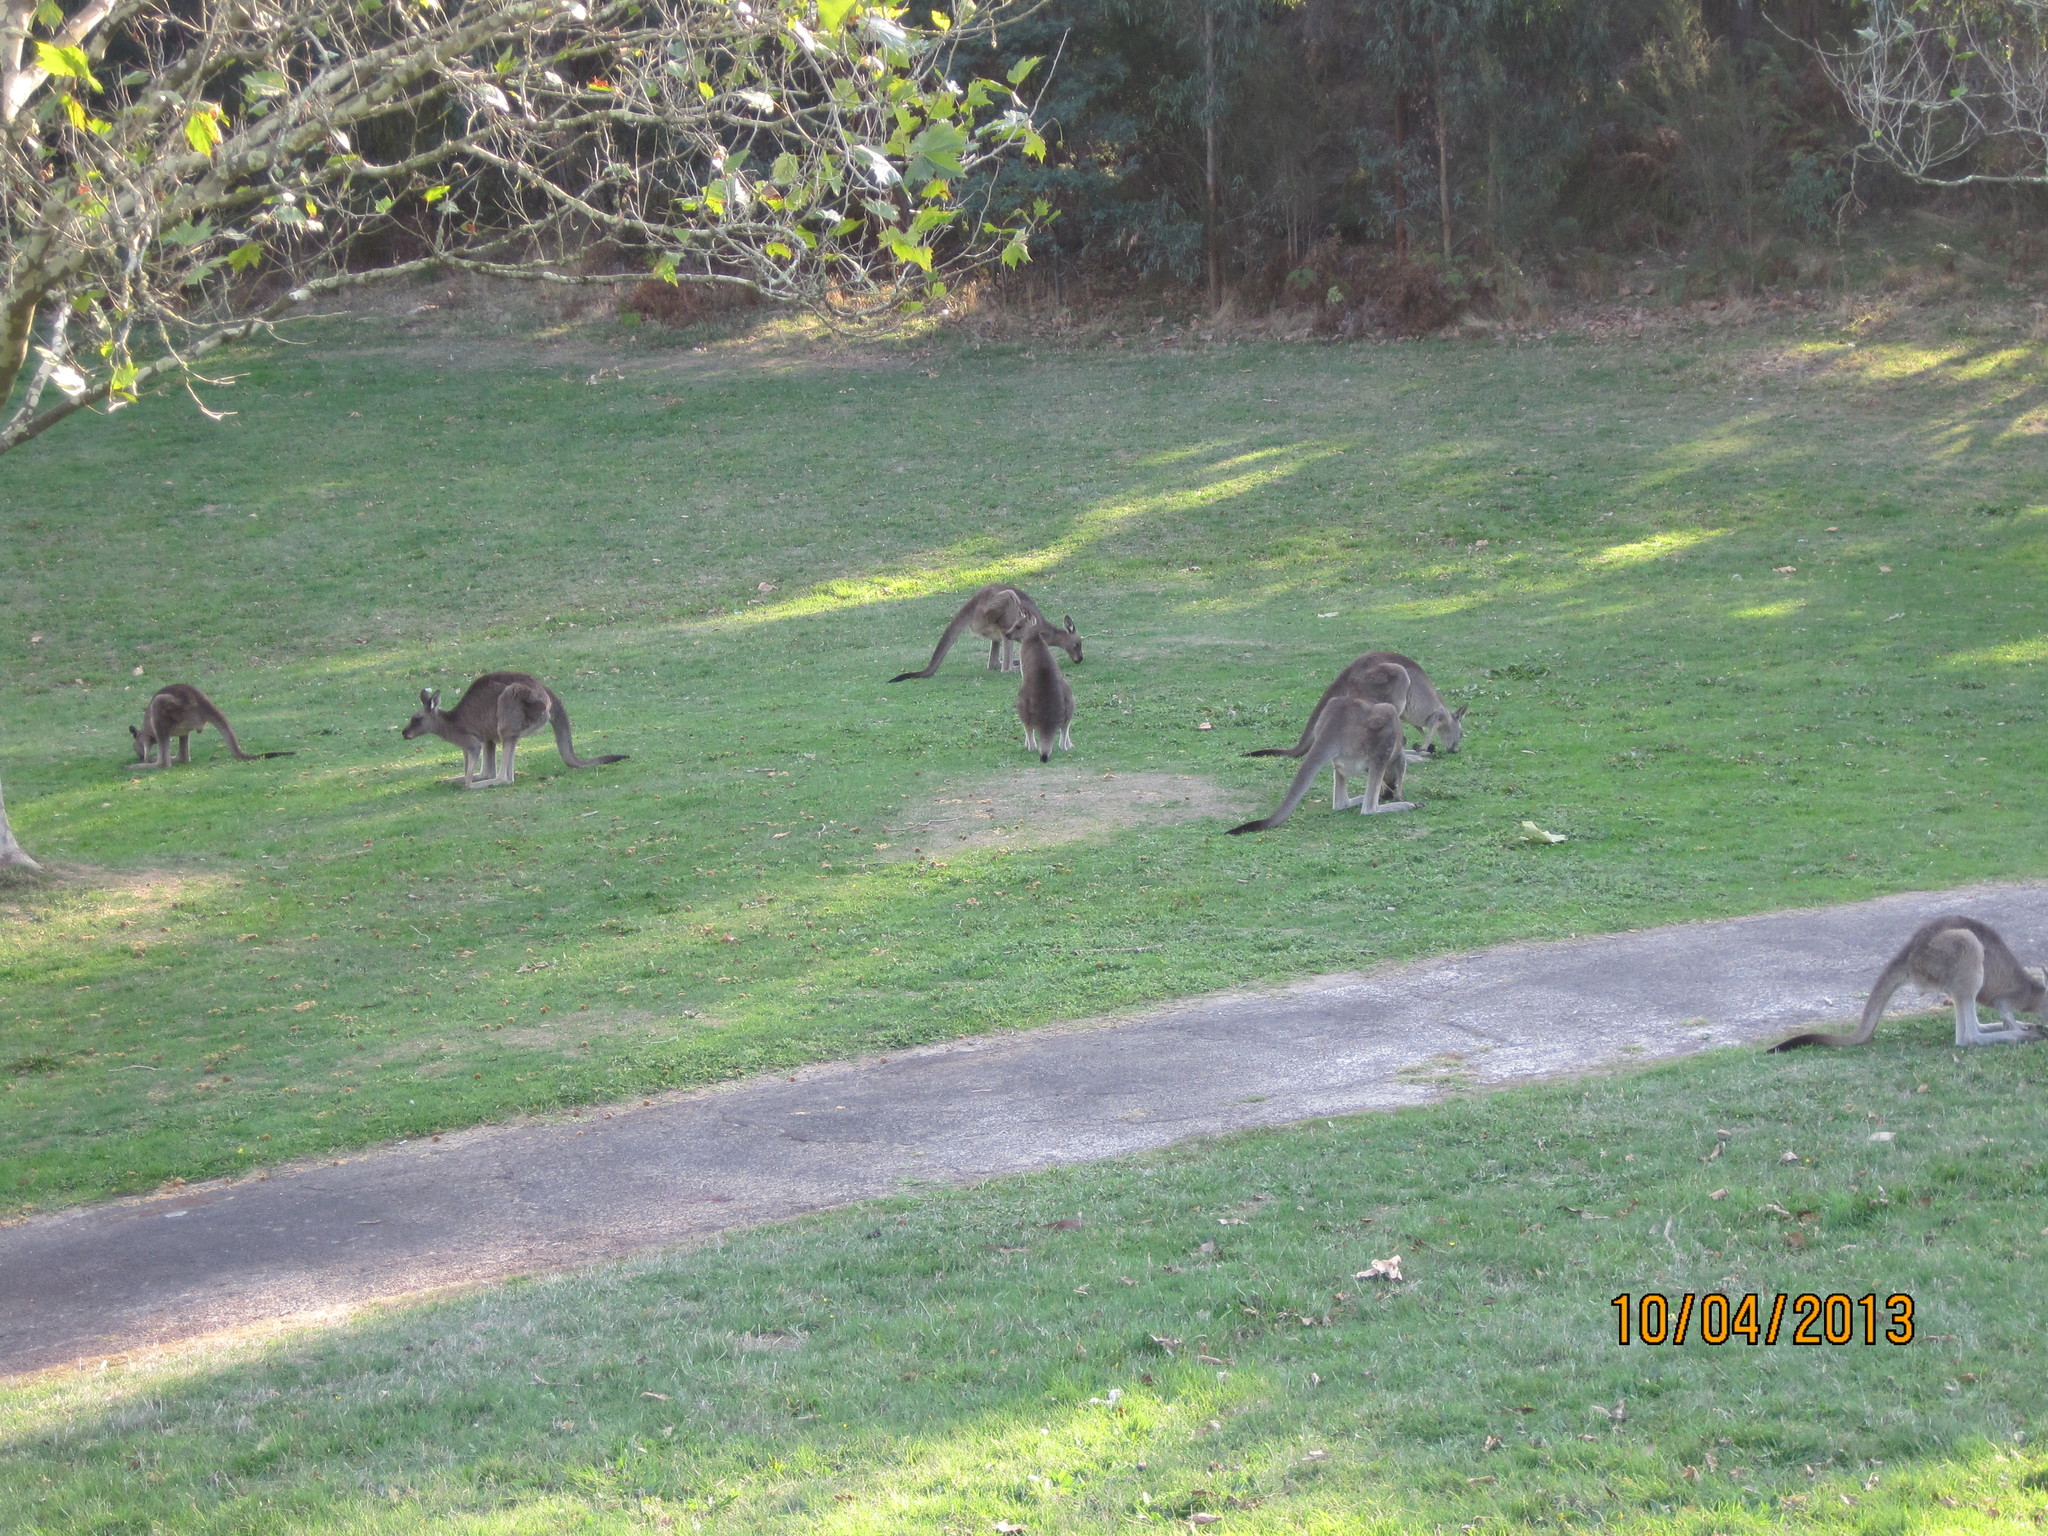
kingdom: Animalia
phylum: Chordata
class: Mammalia
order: Diprotodontia
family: Macropodidae
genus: Macropus
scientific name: Macropus giganteus
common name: Eastern grey kangaroo
